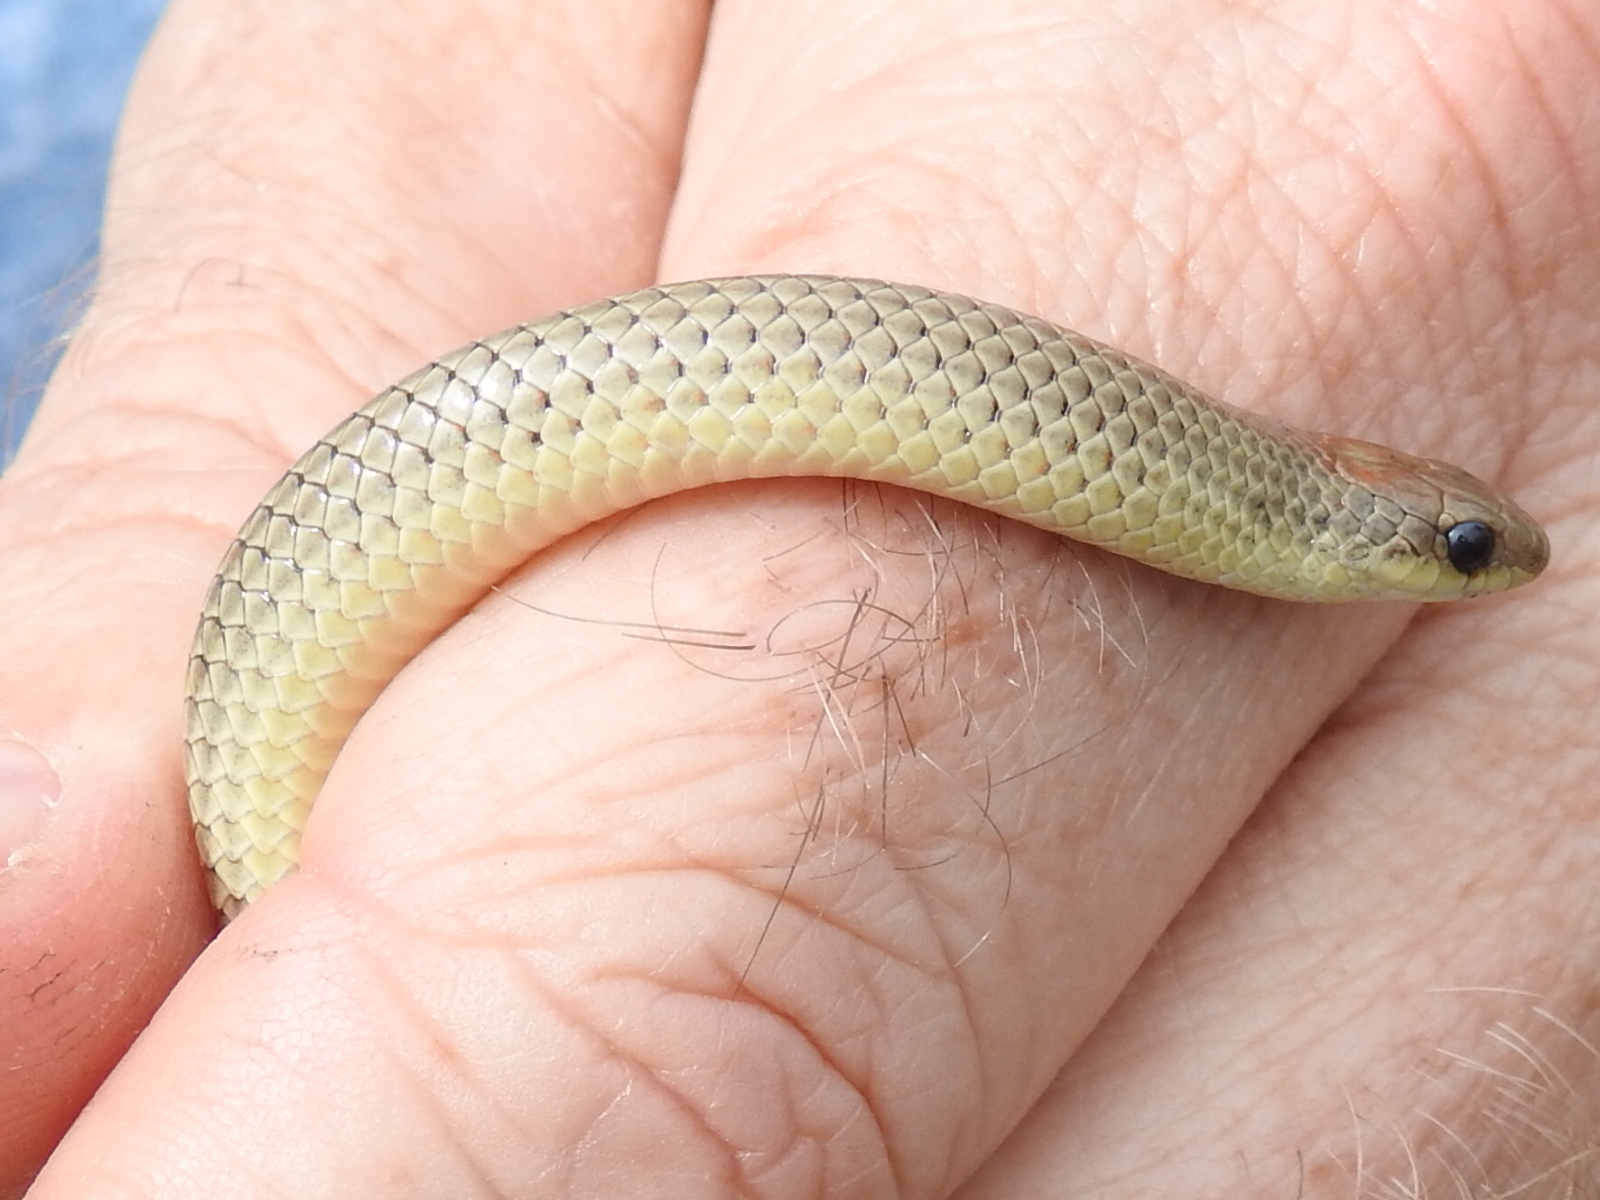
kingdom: Animalia
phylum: Chordata
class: Squamata
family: Colubridae
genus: Sonora
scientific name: Sonora episcopa
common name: Ground snake
